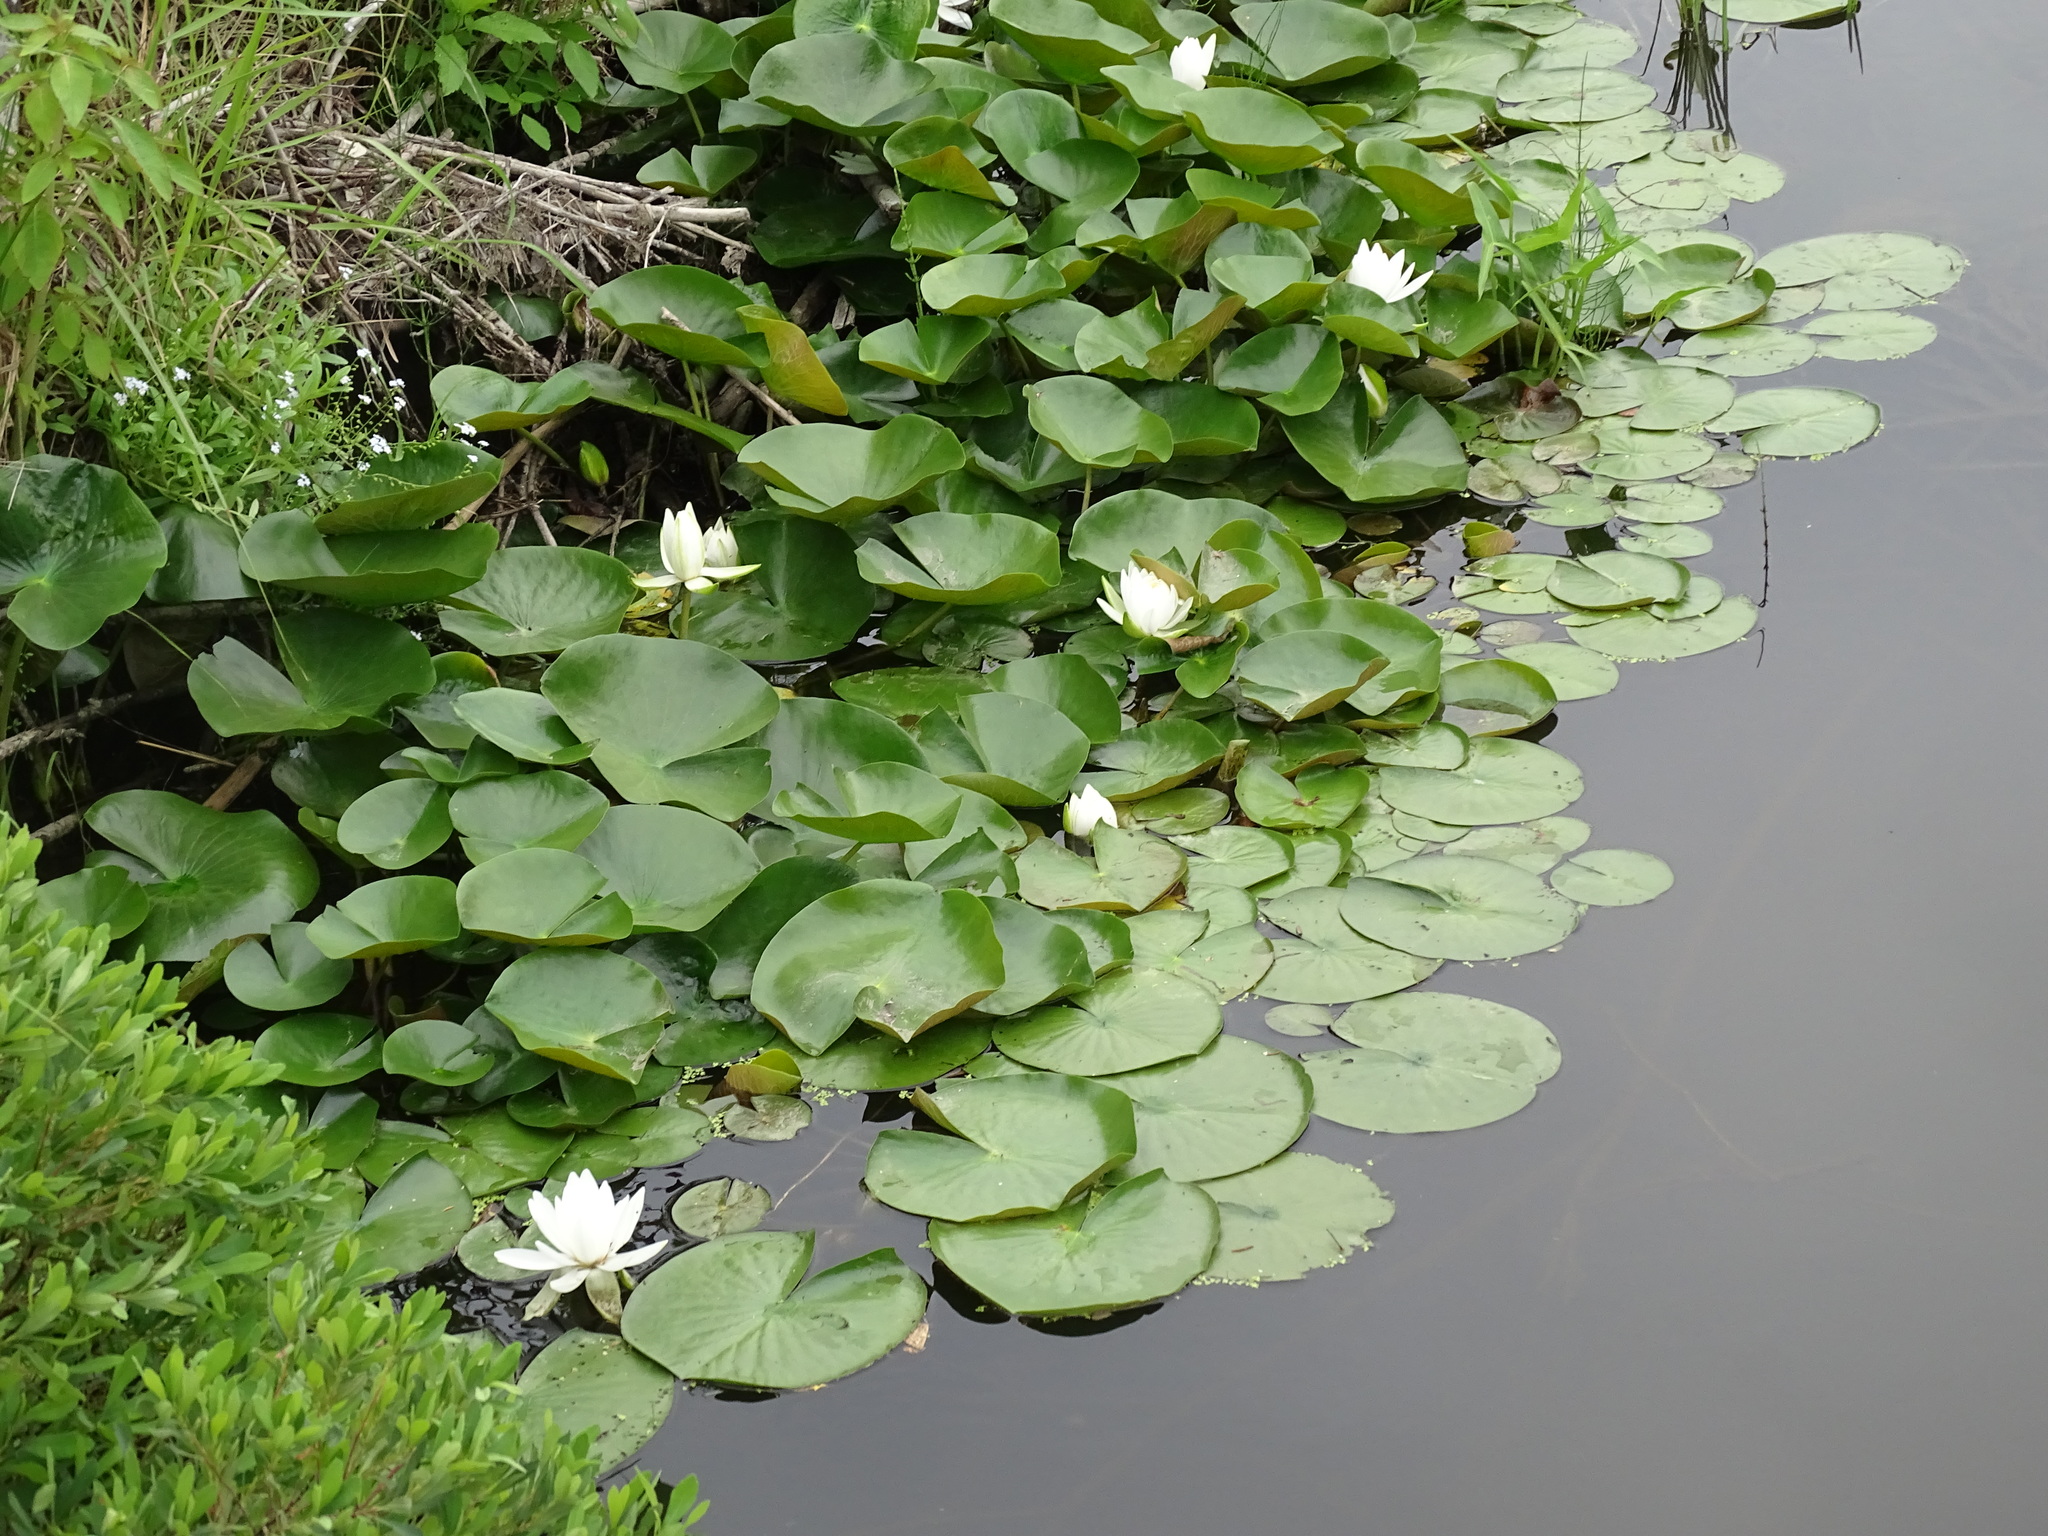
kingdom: Plantae
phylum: Tracheophyta
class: Magnoliopsida
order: Nymphaeales
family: Nymphaeaceae
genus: Nymphaea
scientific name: Nymphaea odorata
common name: Fragrant water-lily
